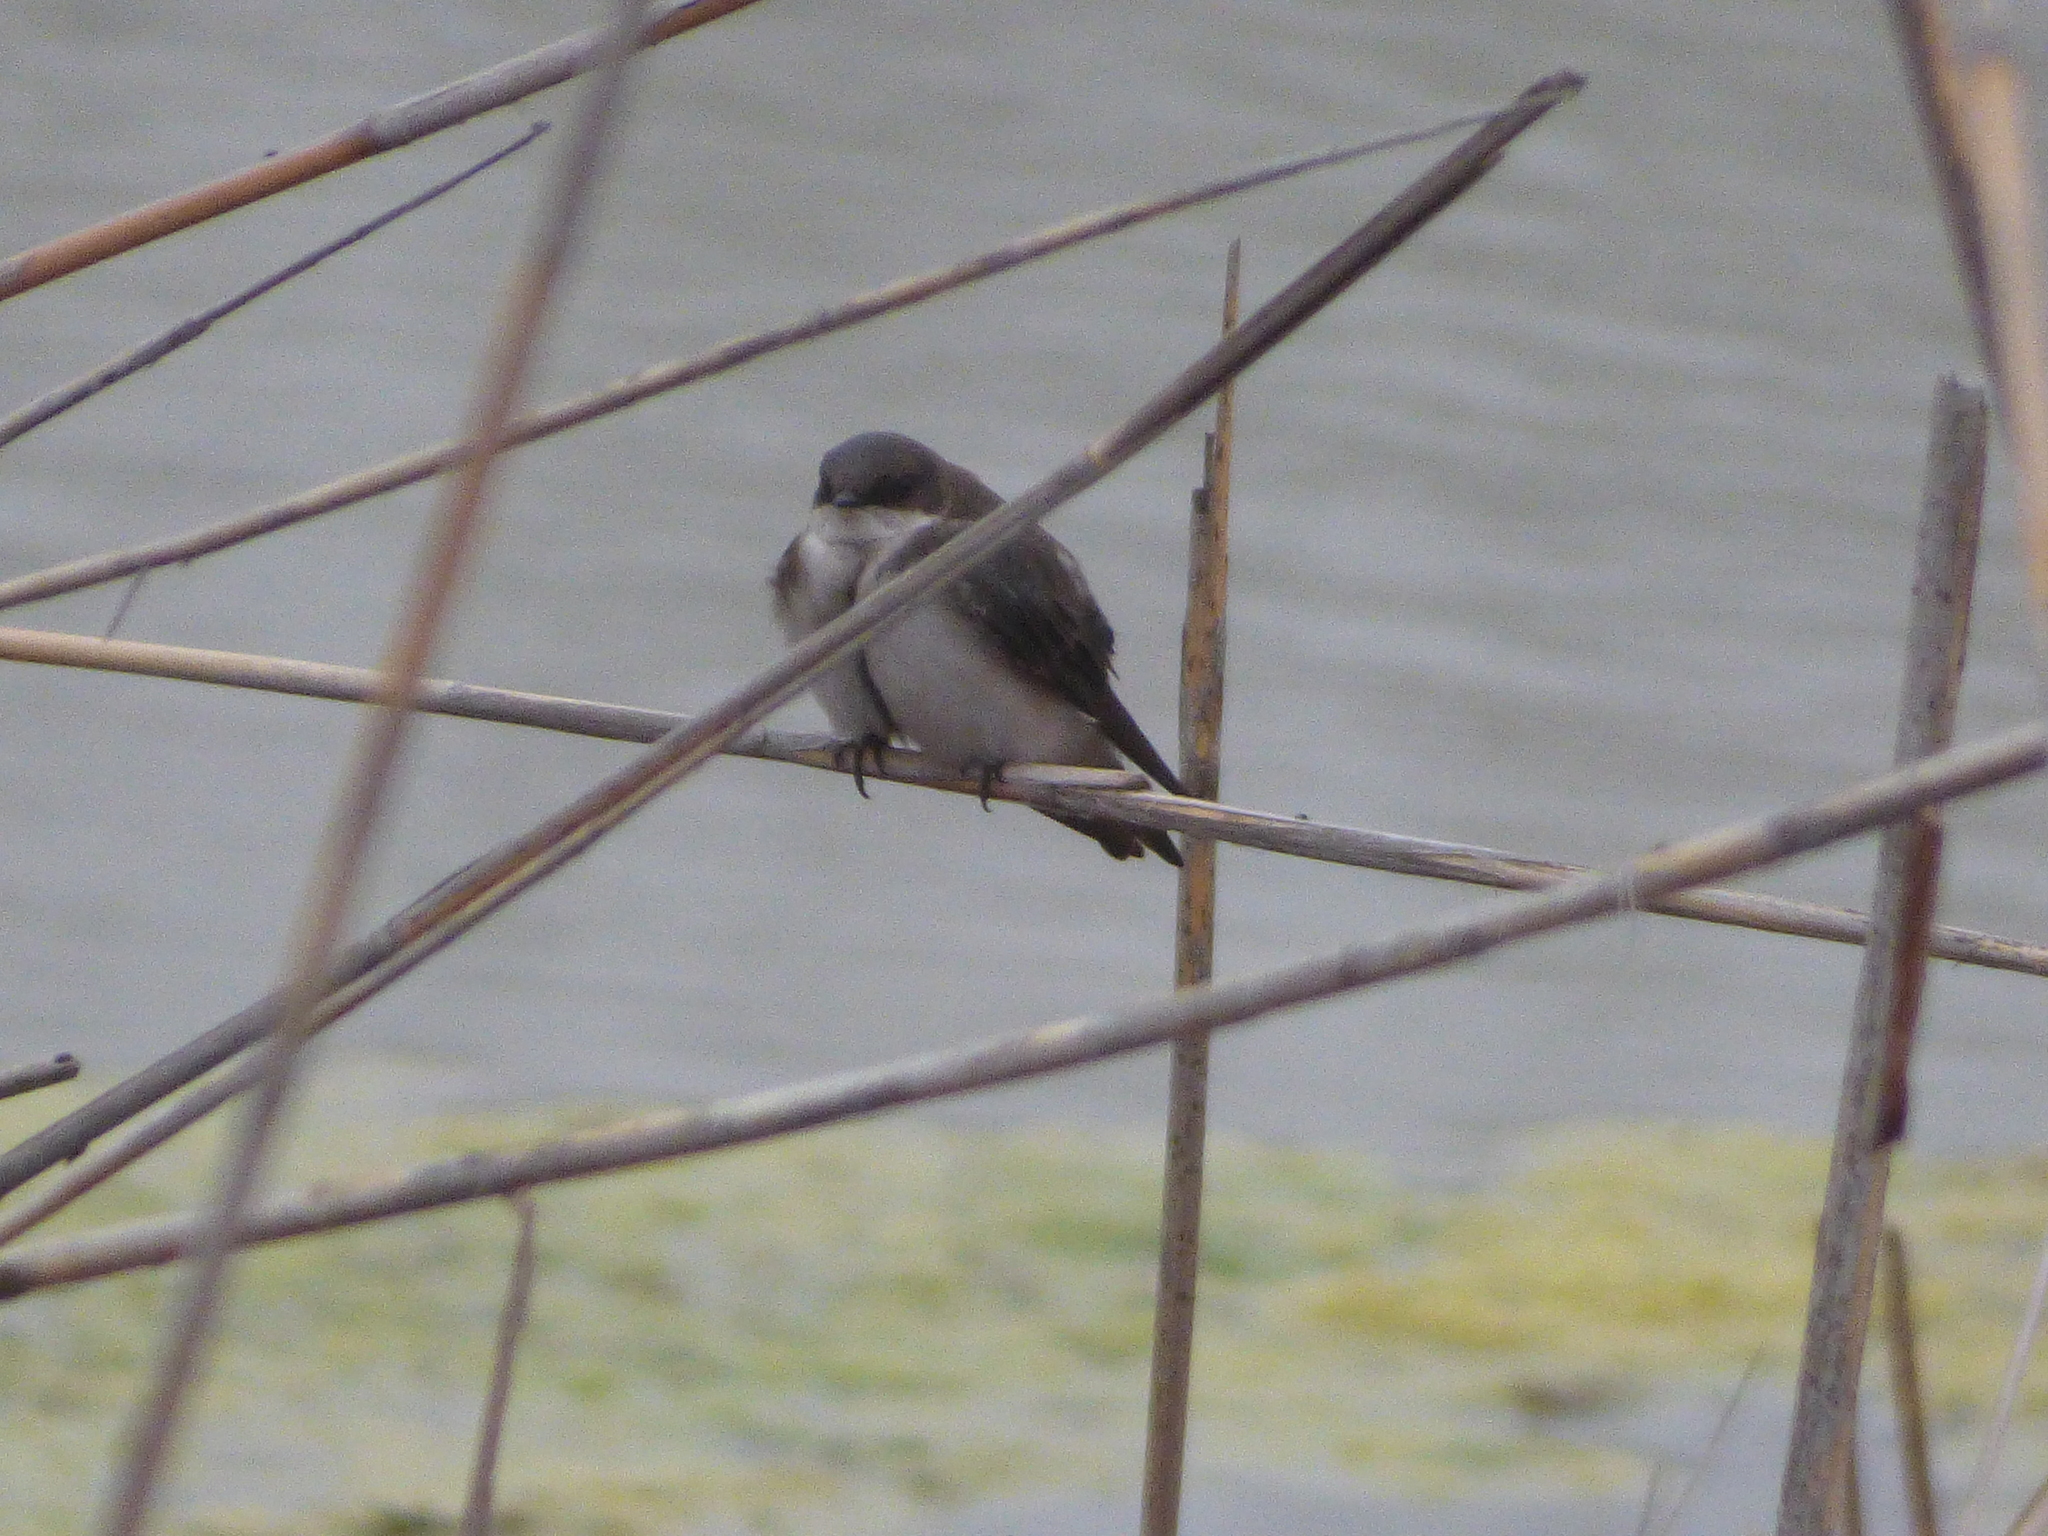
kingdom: Animalia
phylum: Chordata
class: Aves
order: Passeriformes
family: Hirundinidae
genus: Tachycineta
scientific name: Tachycineta bicolor
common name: Tree swallow
